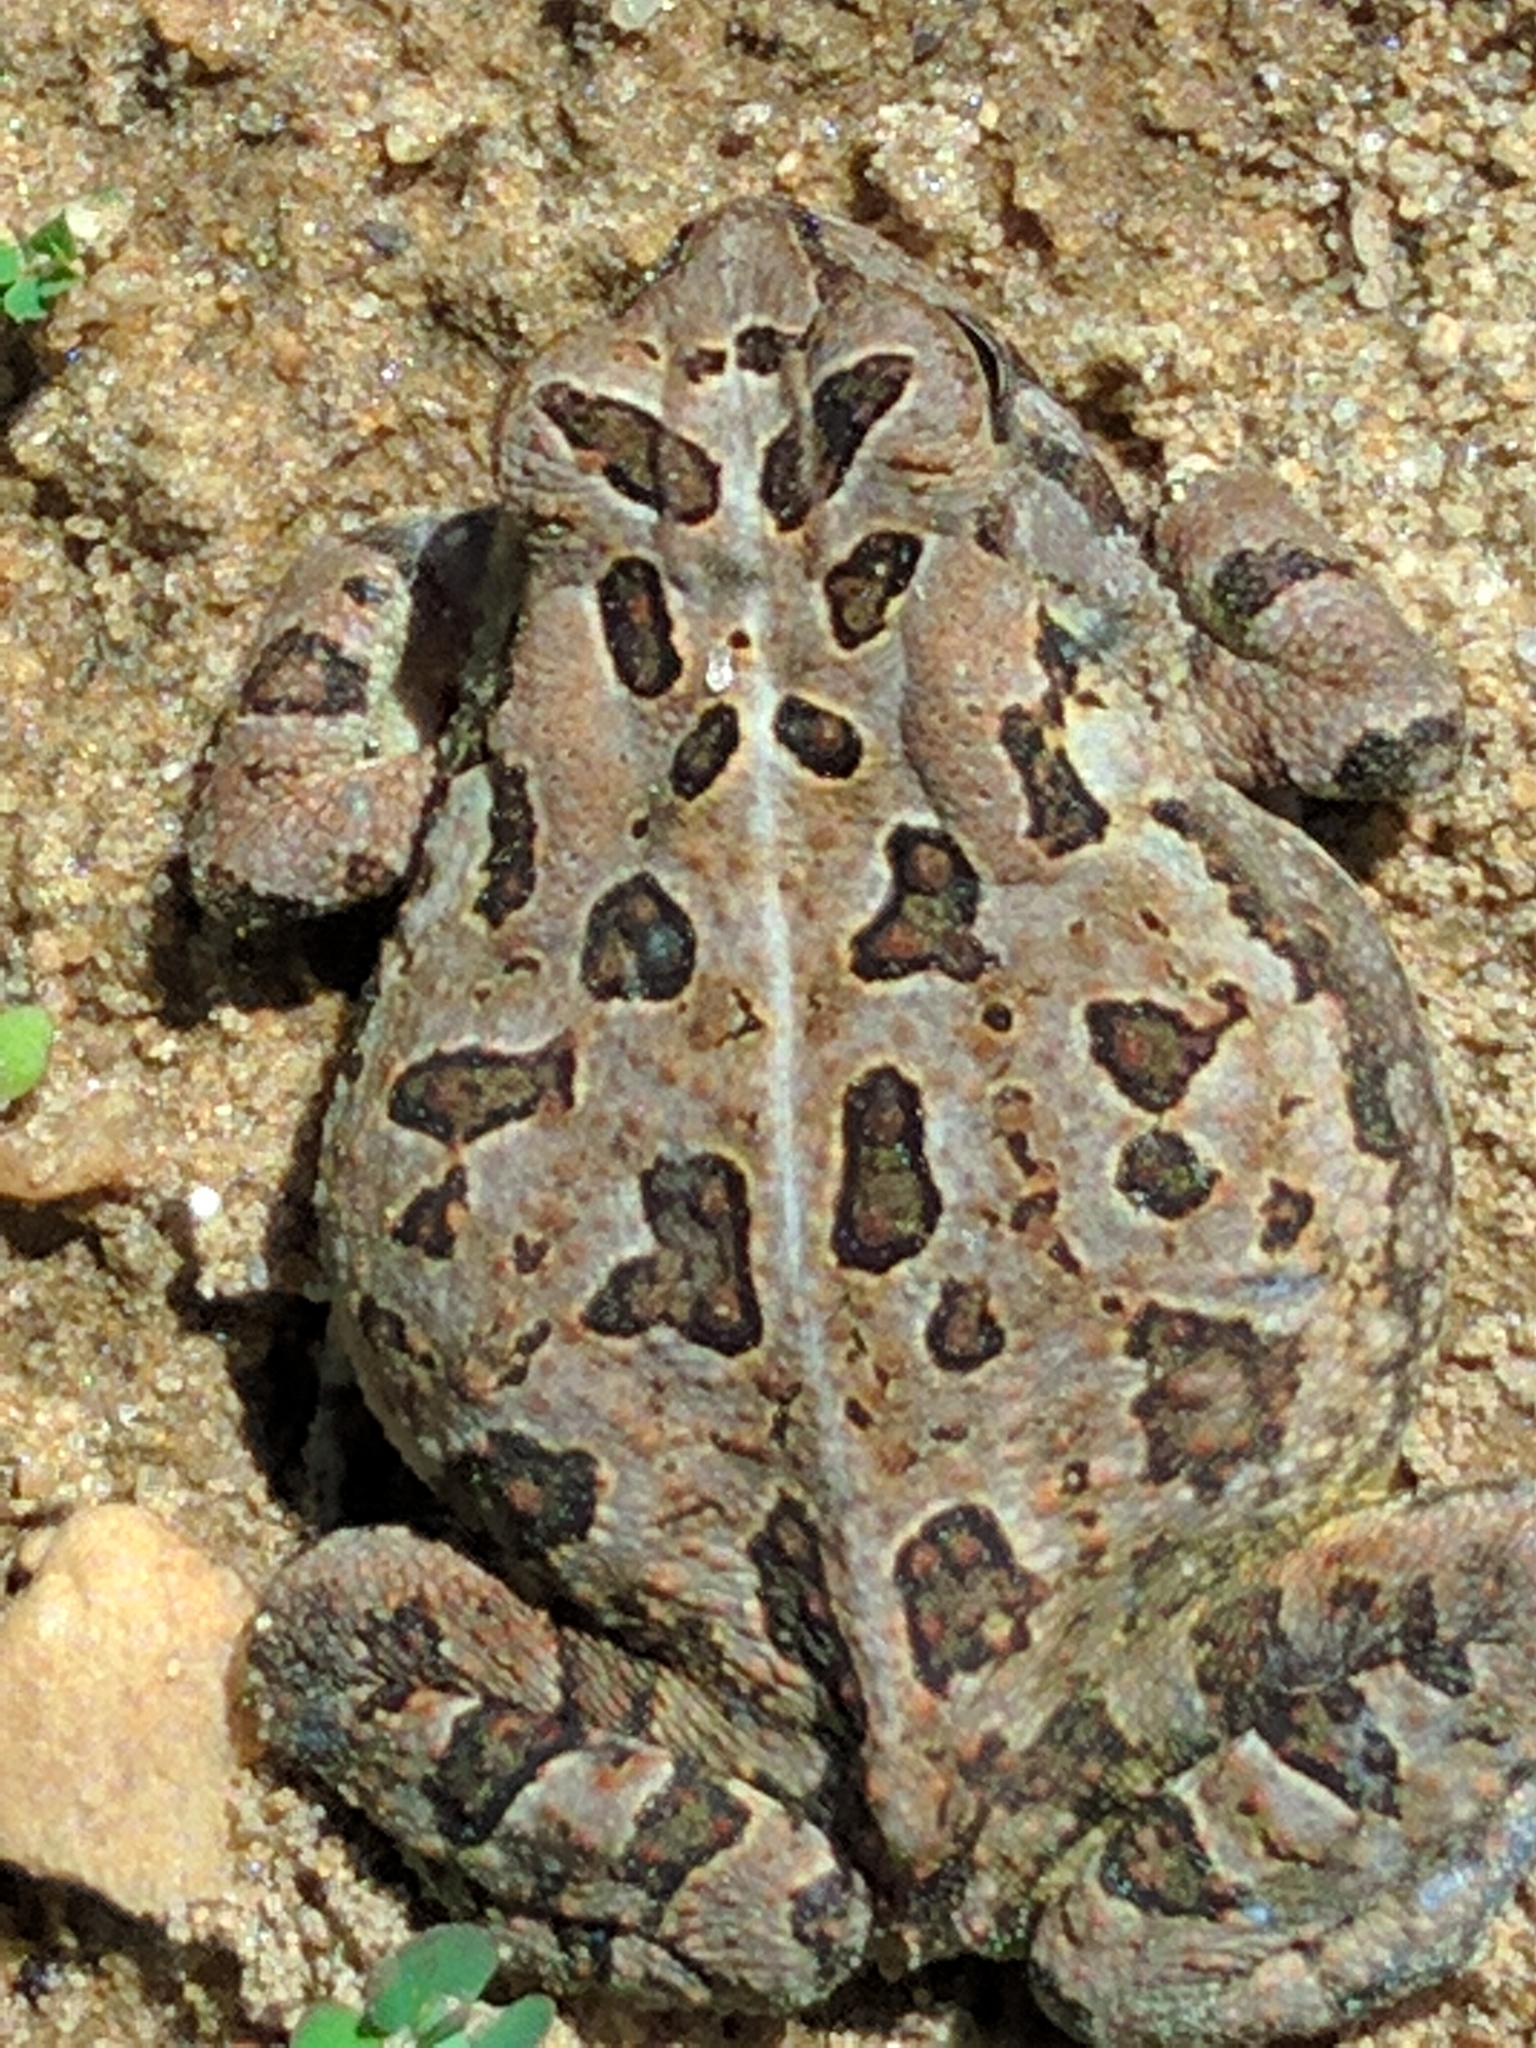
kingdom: Animalia
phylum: Chordata
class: Amphibia
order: Anura
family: Bufonidae
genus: Anaxyrus
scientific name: Anaxyrus fowleri
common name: Fowler's toad
